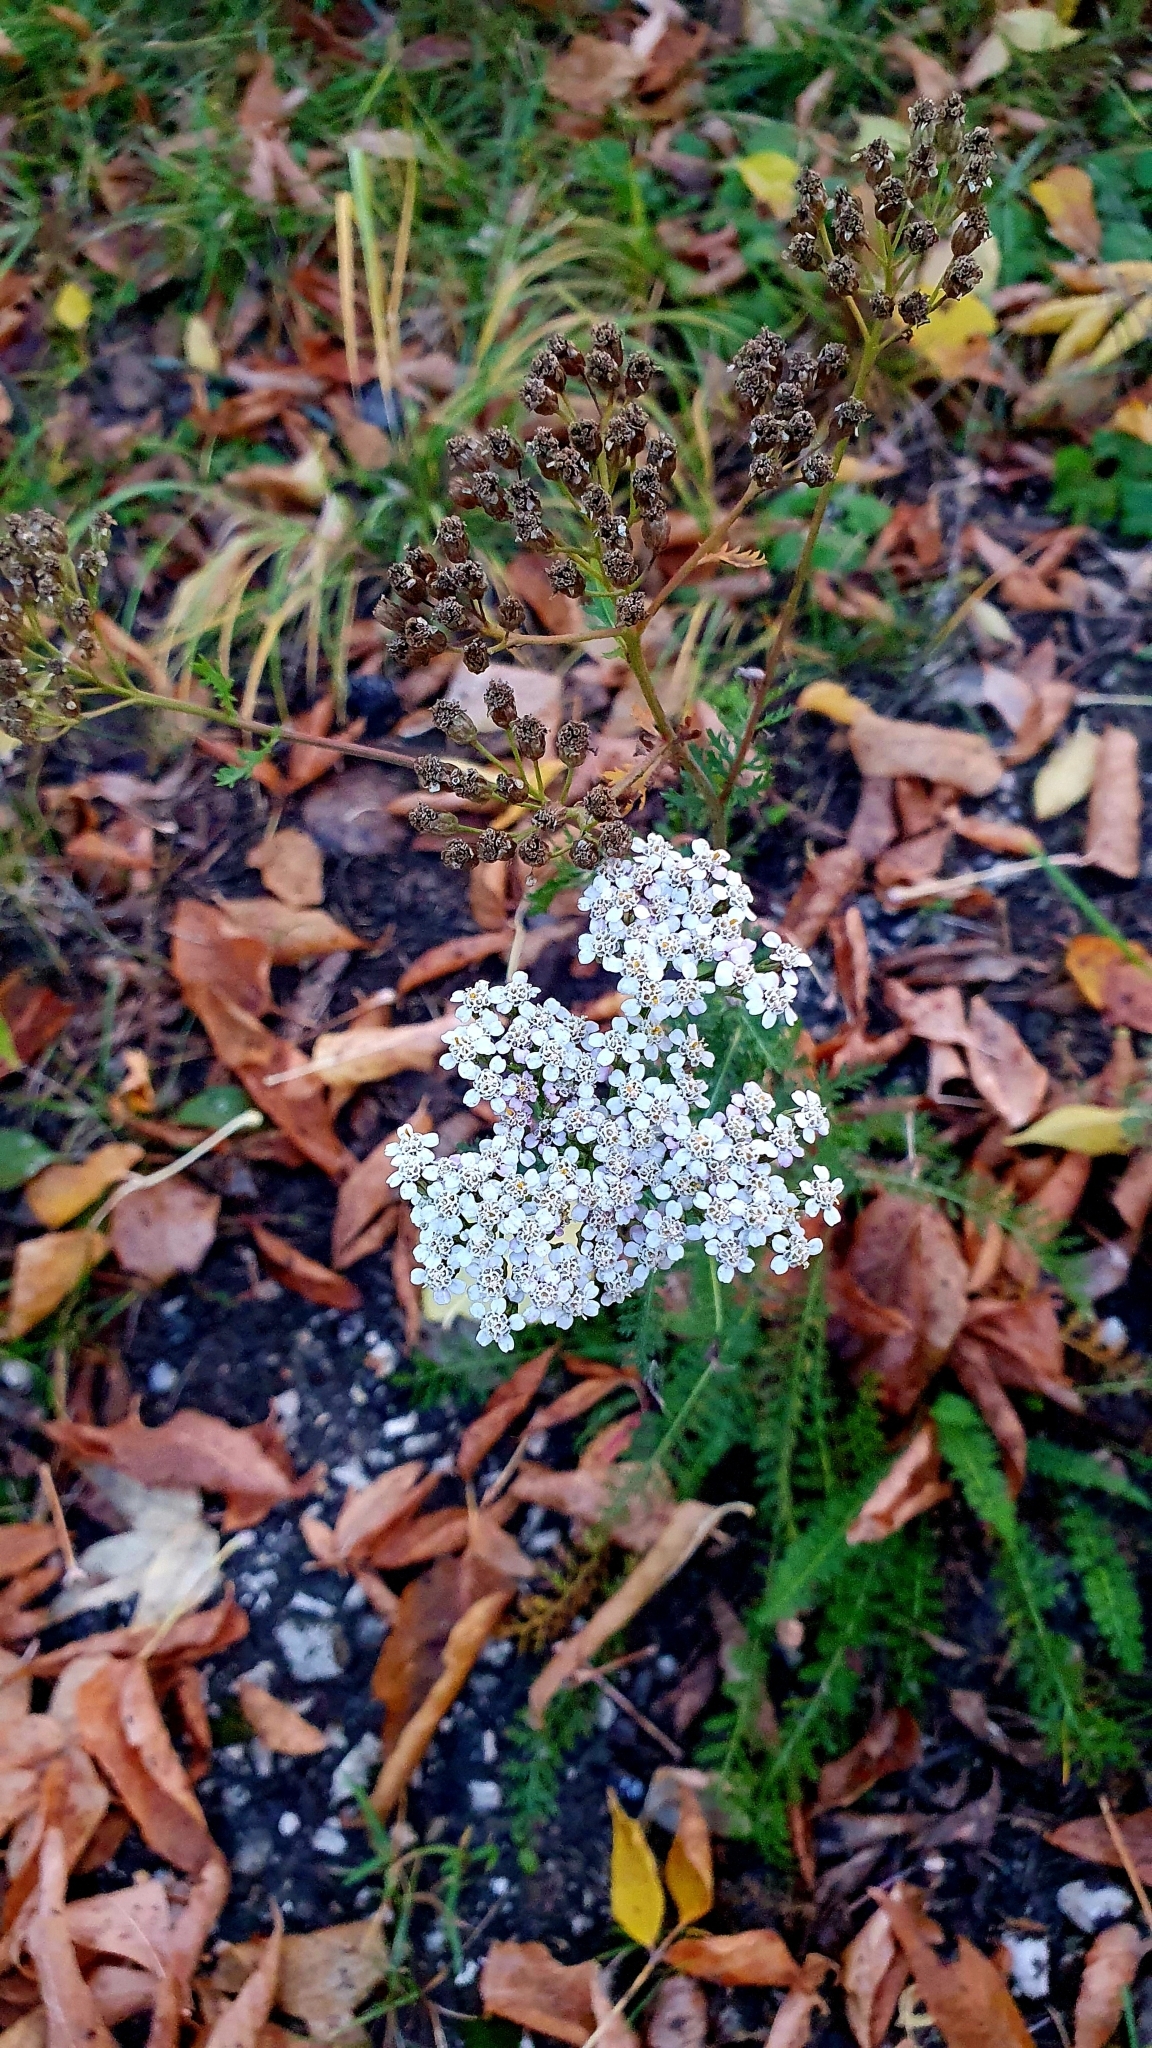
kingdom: Plantae
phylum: Tracheophyta
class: Magnoliopsida
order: Asterales
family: Asteraceae
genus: Achillea
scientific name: Achillea millefolium
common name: Yarrow
